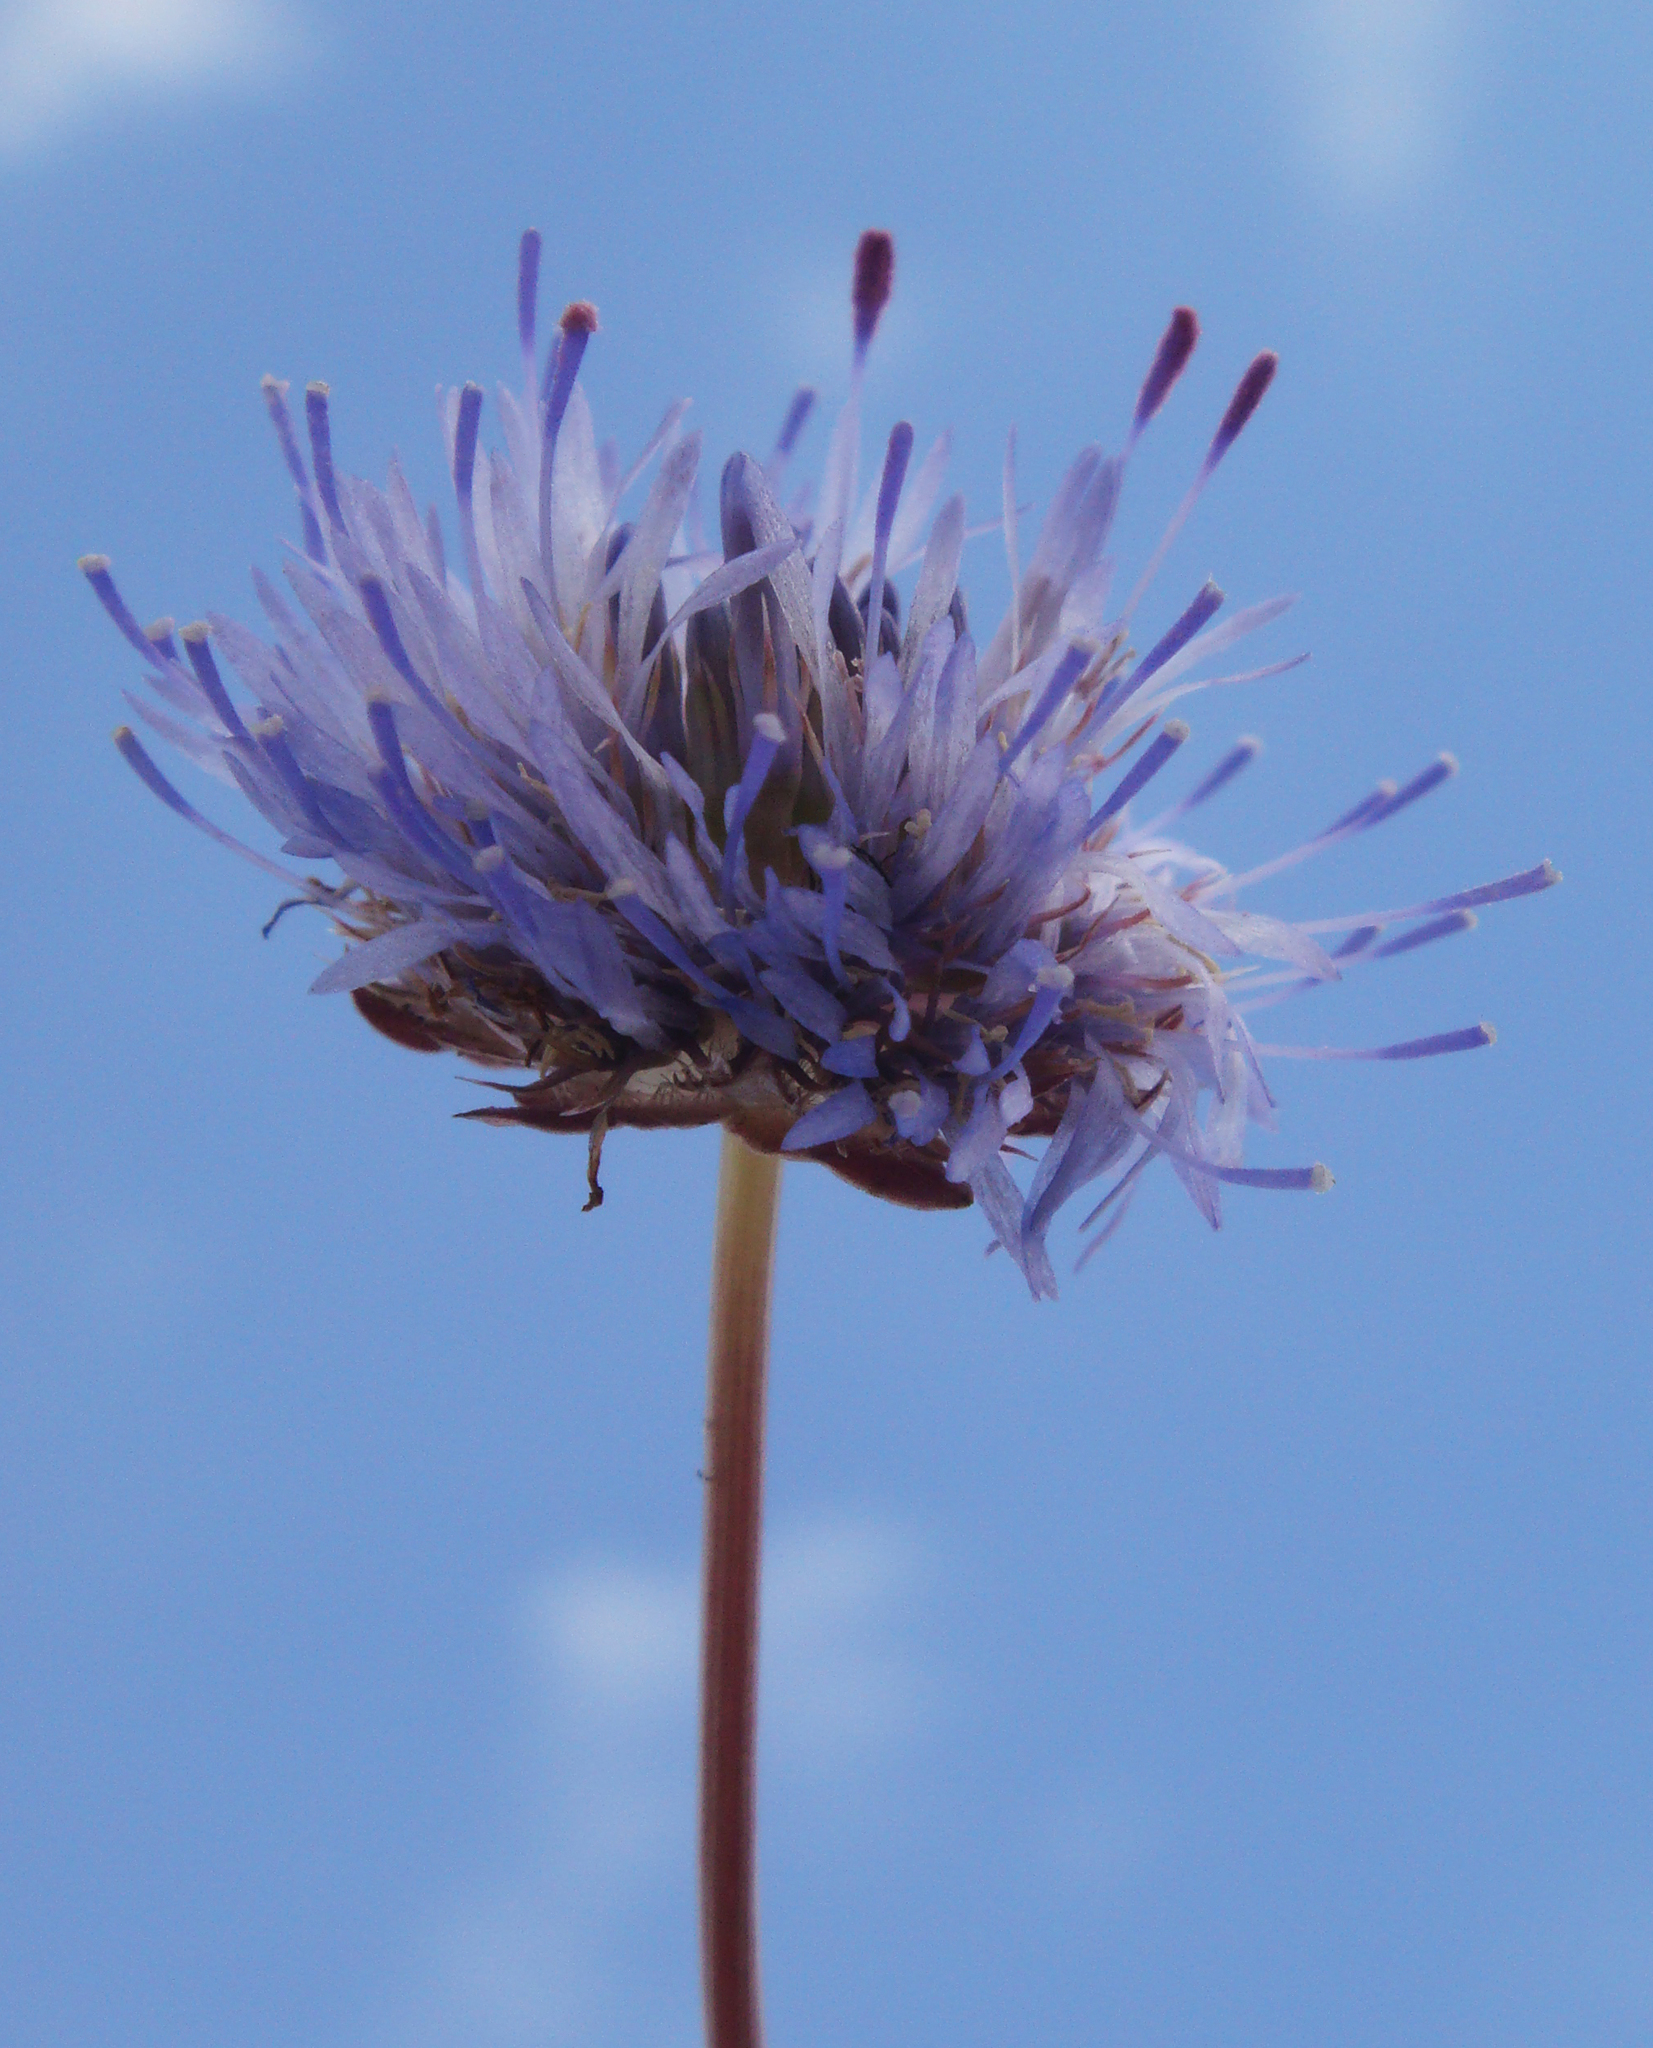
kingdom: Plantae
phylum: Tracheophyta
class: Magnoliopsida
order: Asterales
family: Campanulaceae
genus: Jasione
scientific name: Jasione montana
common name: Sheep's-bit
